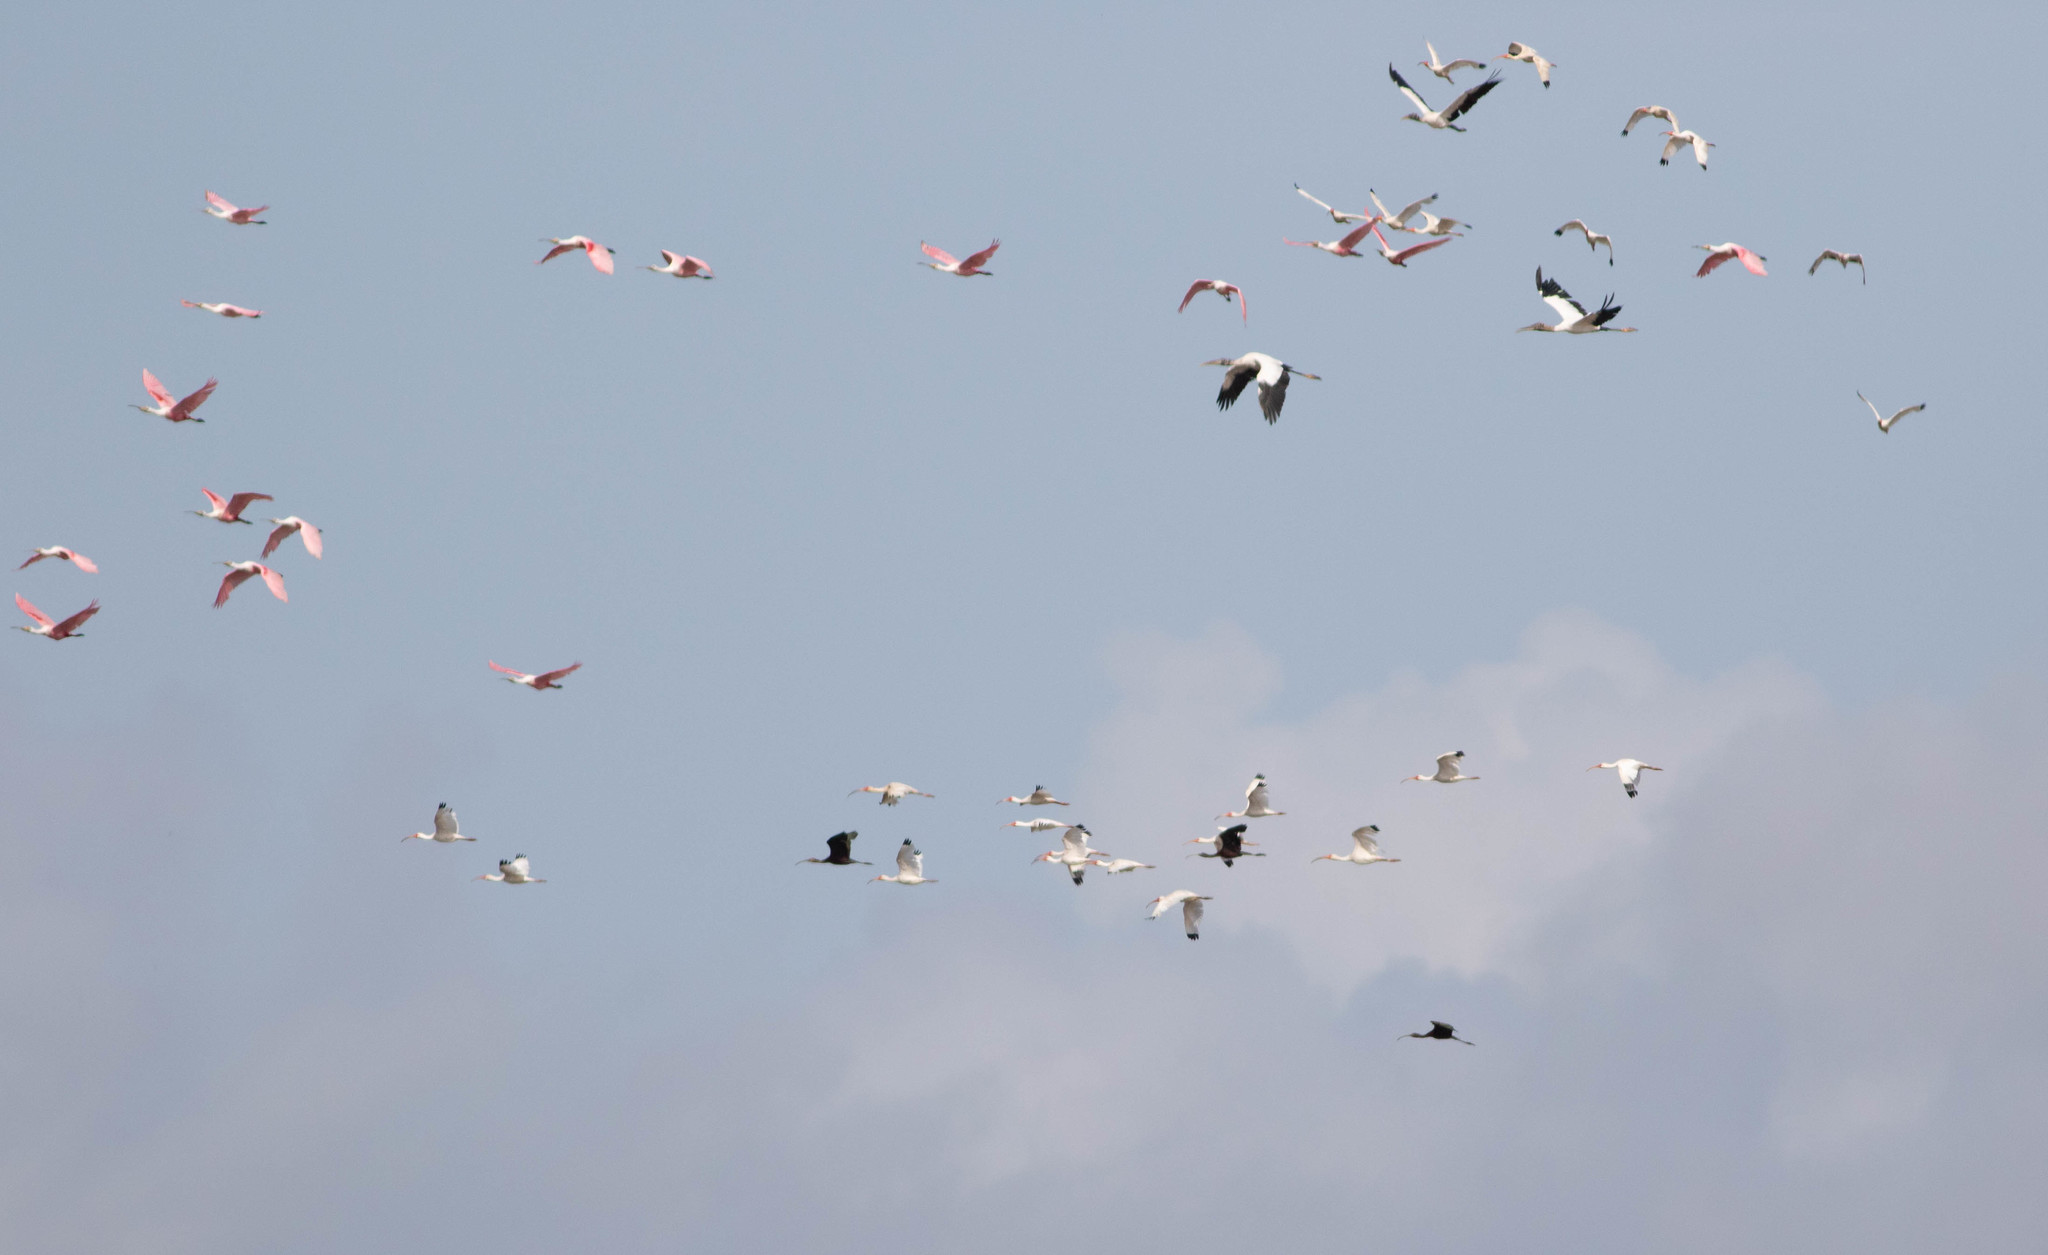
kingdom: Animalia
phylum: Chordata
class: Aves
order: Ciconiiformes
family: Ciconiidae
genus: Mycteria
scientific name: Mycteria americana
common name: Wood stork
